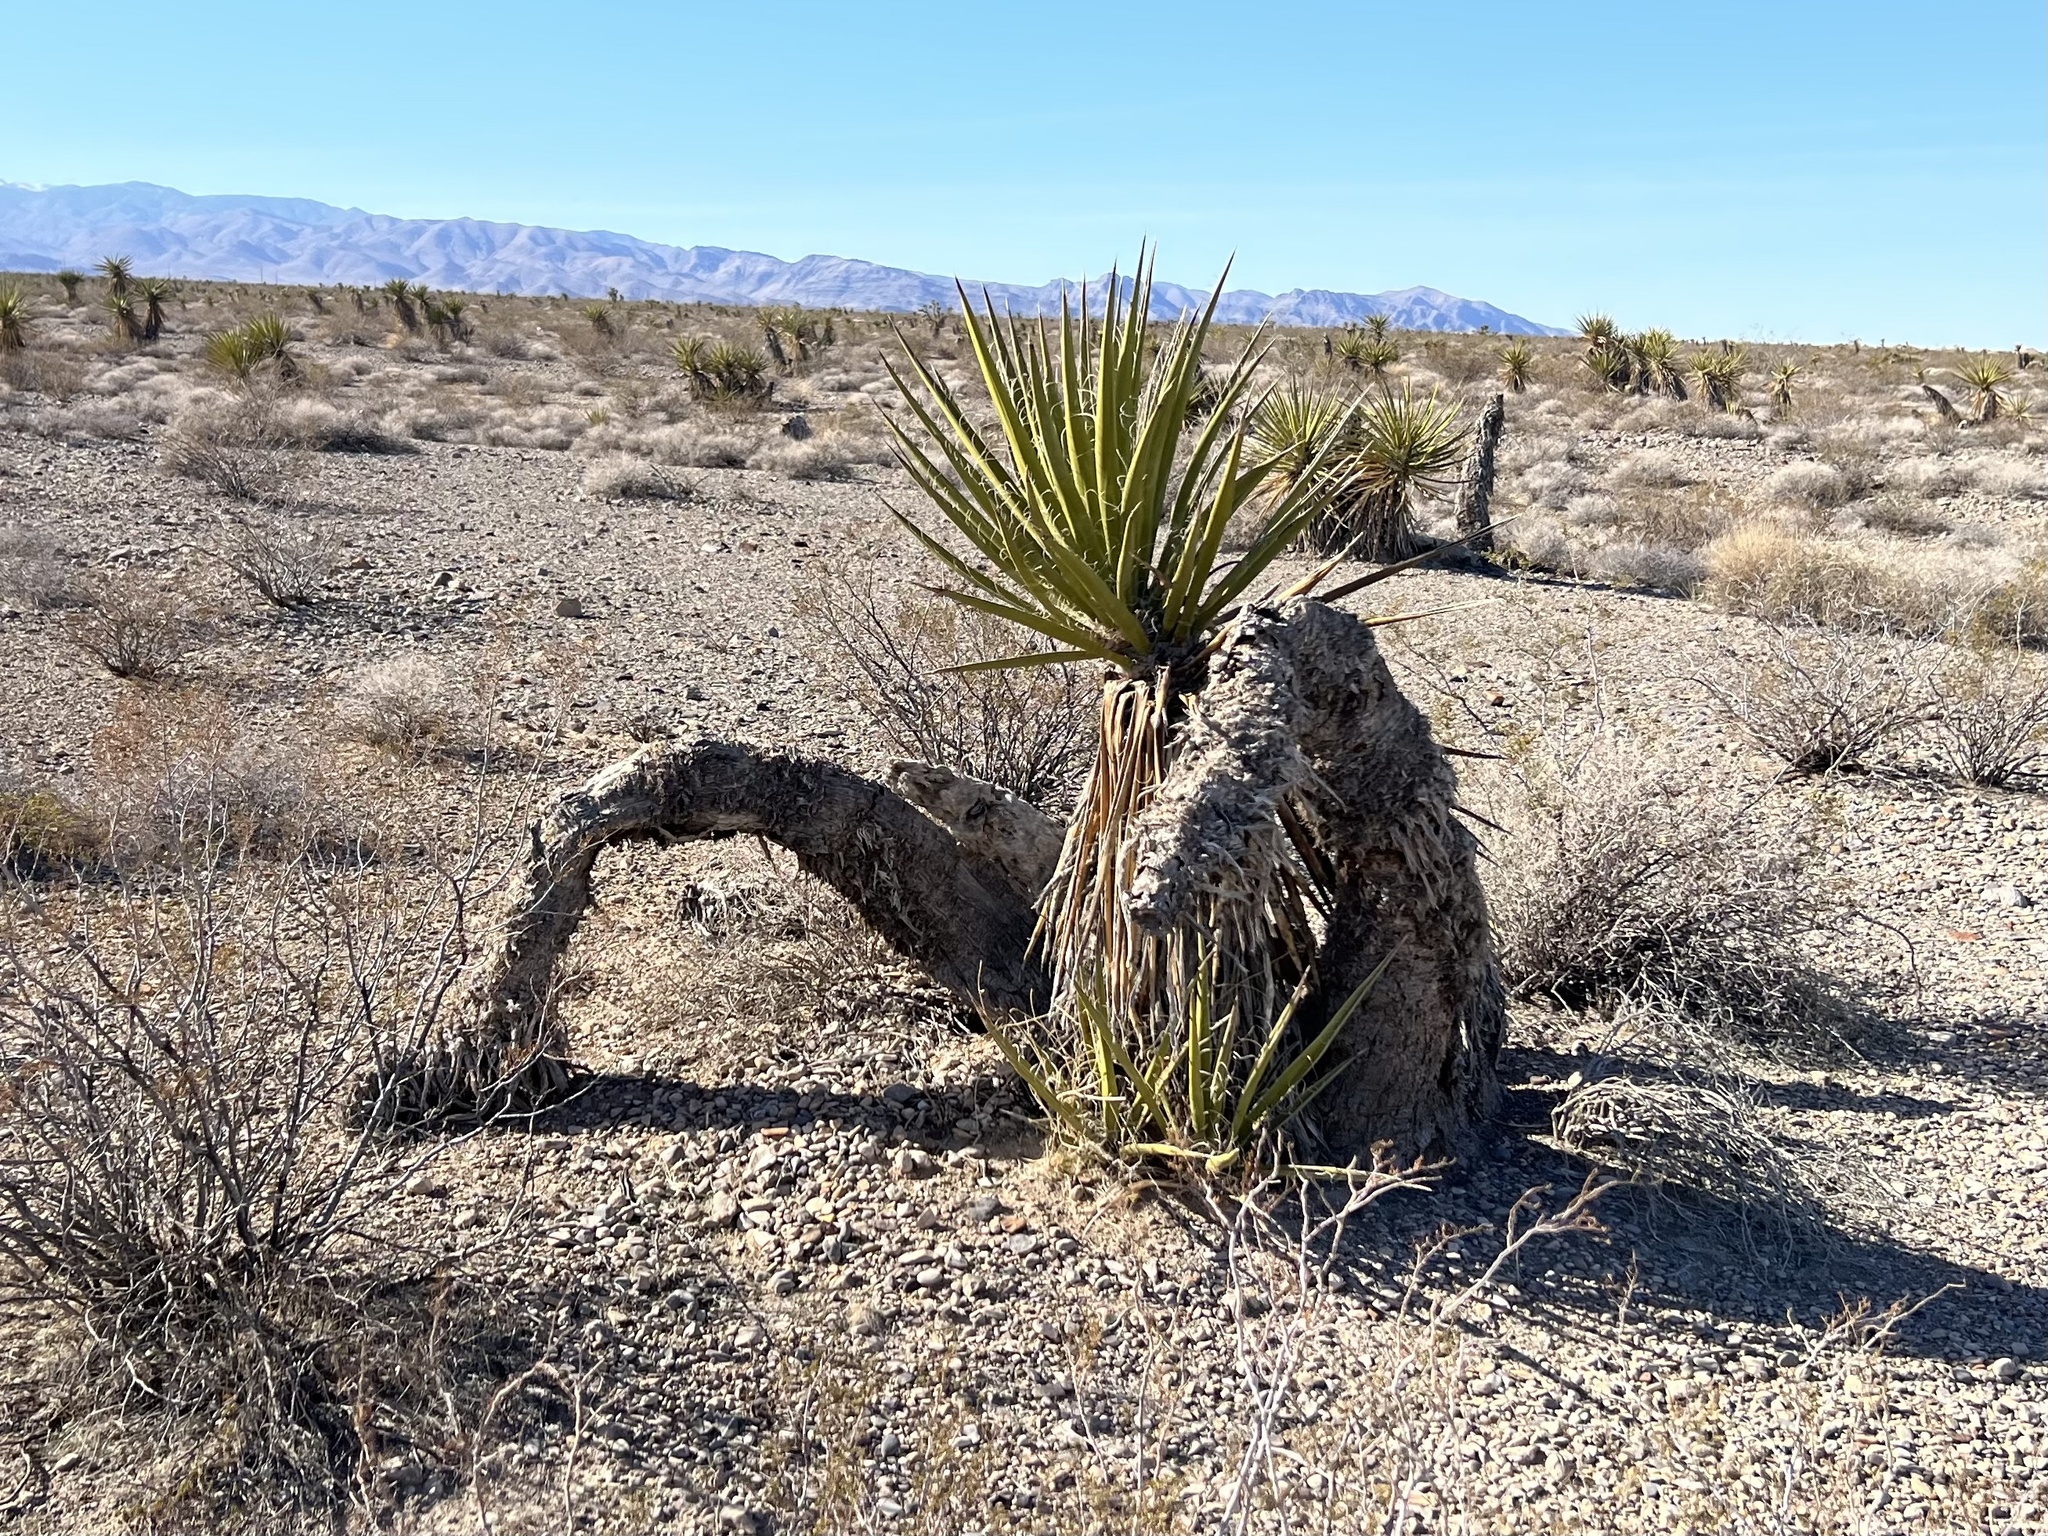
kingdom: Plantae
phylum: Tracheophyta
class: Liliopsida
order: Asparagales
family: Asparagaceae
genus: Yucca
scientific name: Yucca schidigera
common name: Mojave yucca
